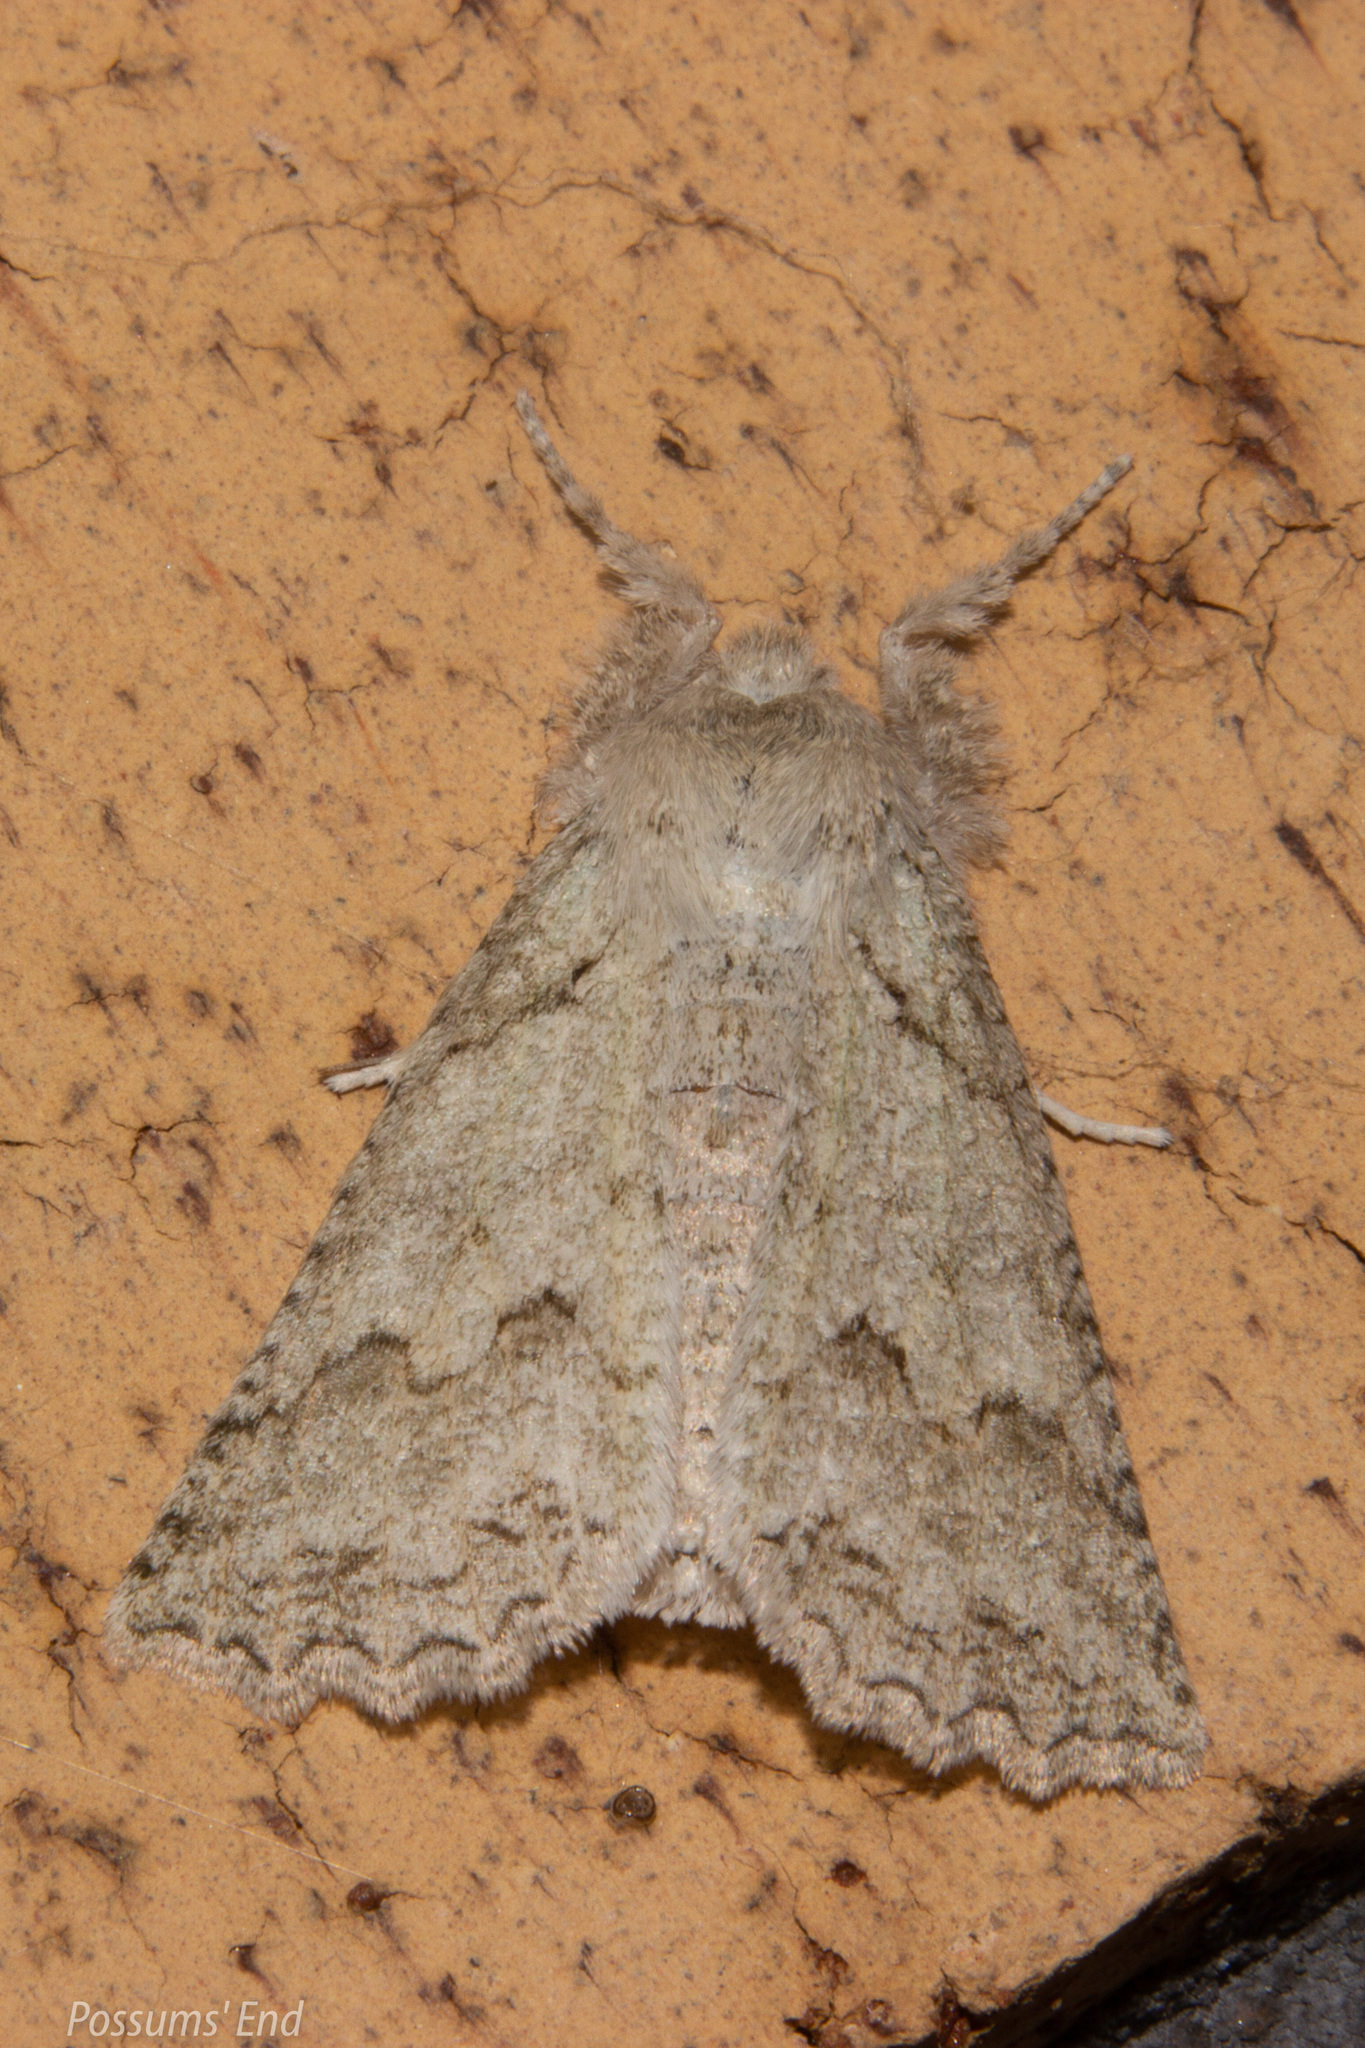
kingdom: Animalia
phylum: Arthropoda
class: Insecta
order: Lepidoptera
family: Geometridae
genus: Declana
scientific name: Declana niveata
